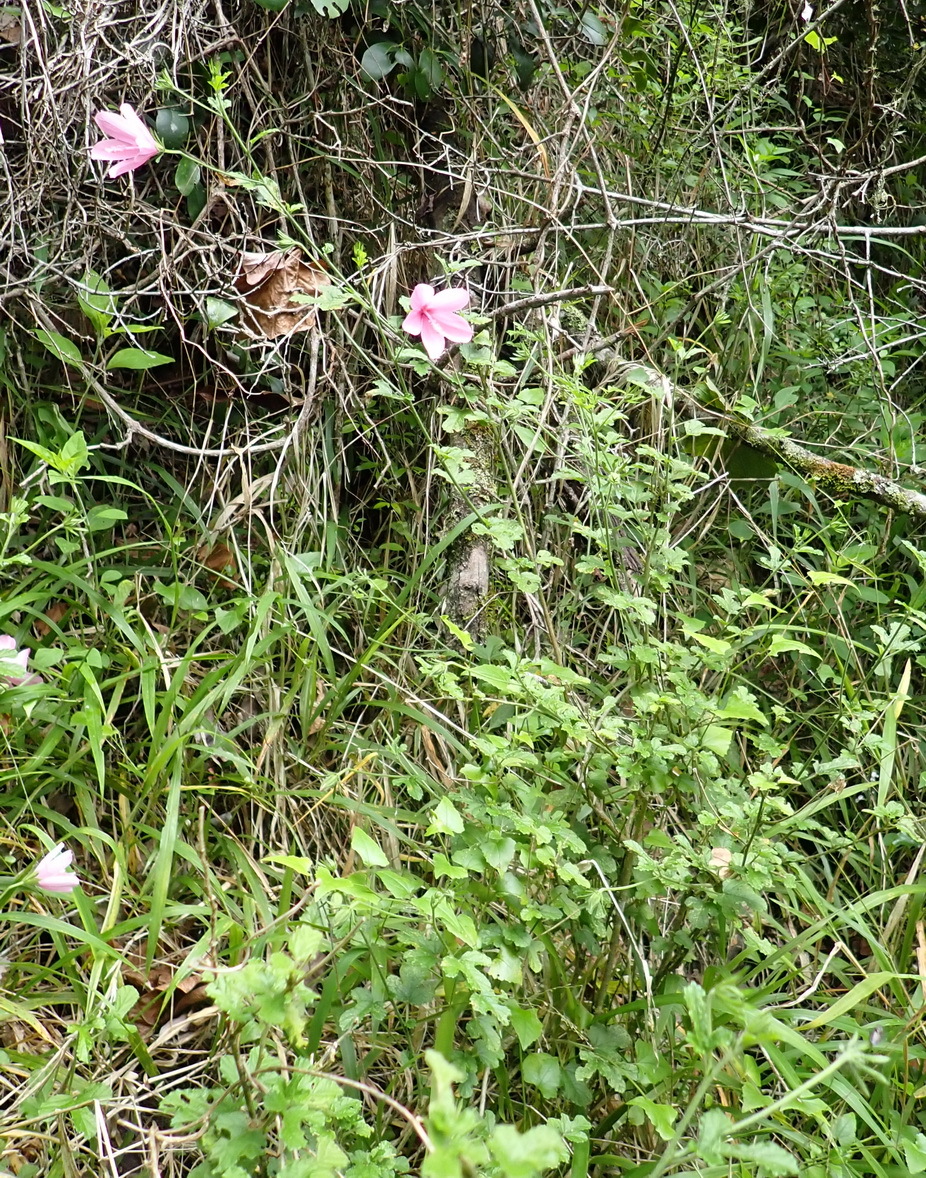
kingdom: Plantae
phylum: Tracheophyta
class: Magnoliopsida
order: Malvales
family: Malvaceae
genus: Hibiscus
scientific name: Hibiscus pedunculatus
